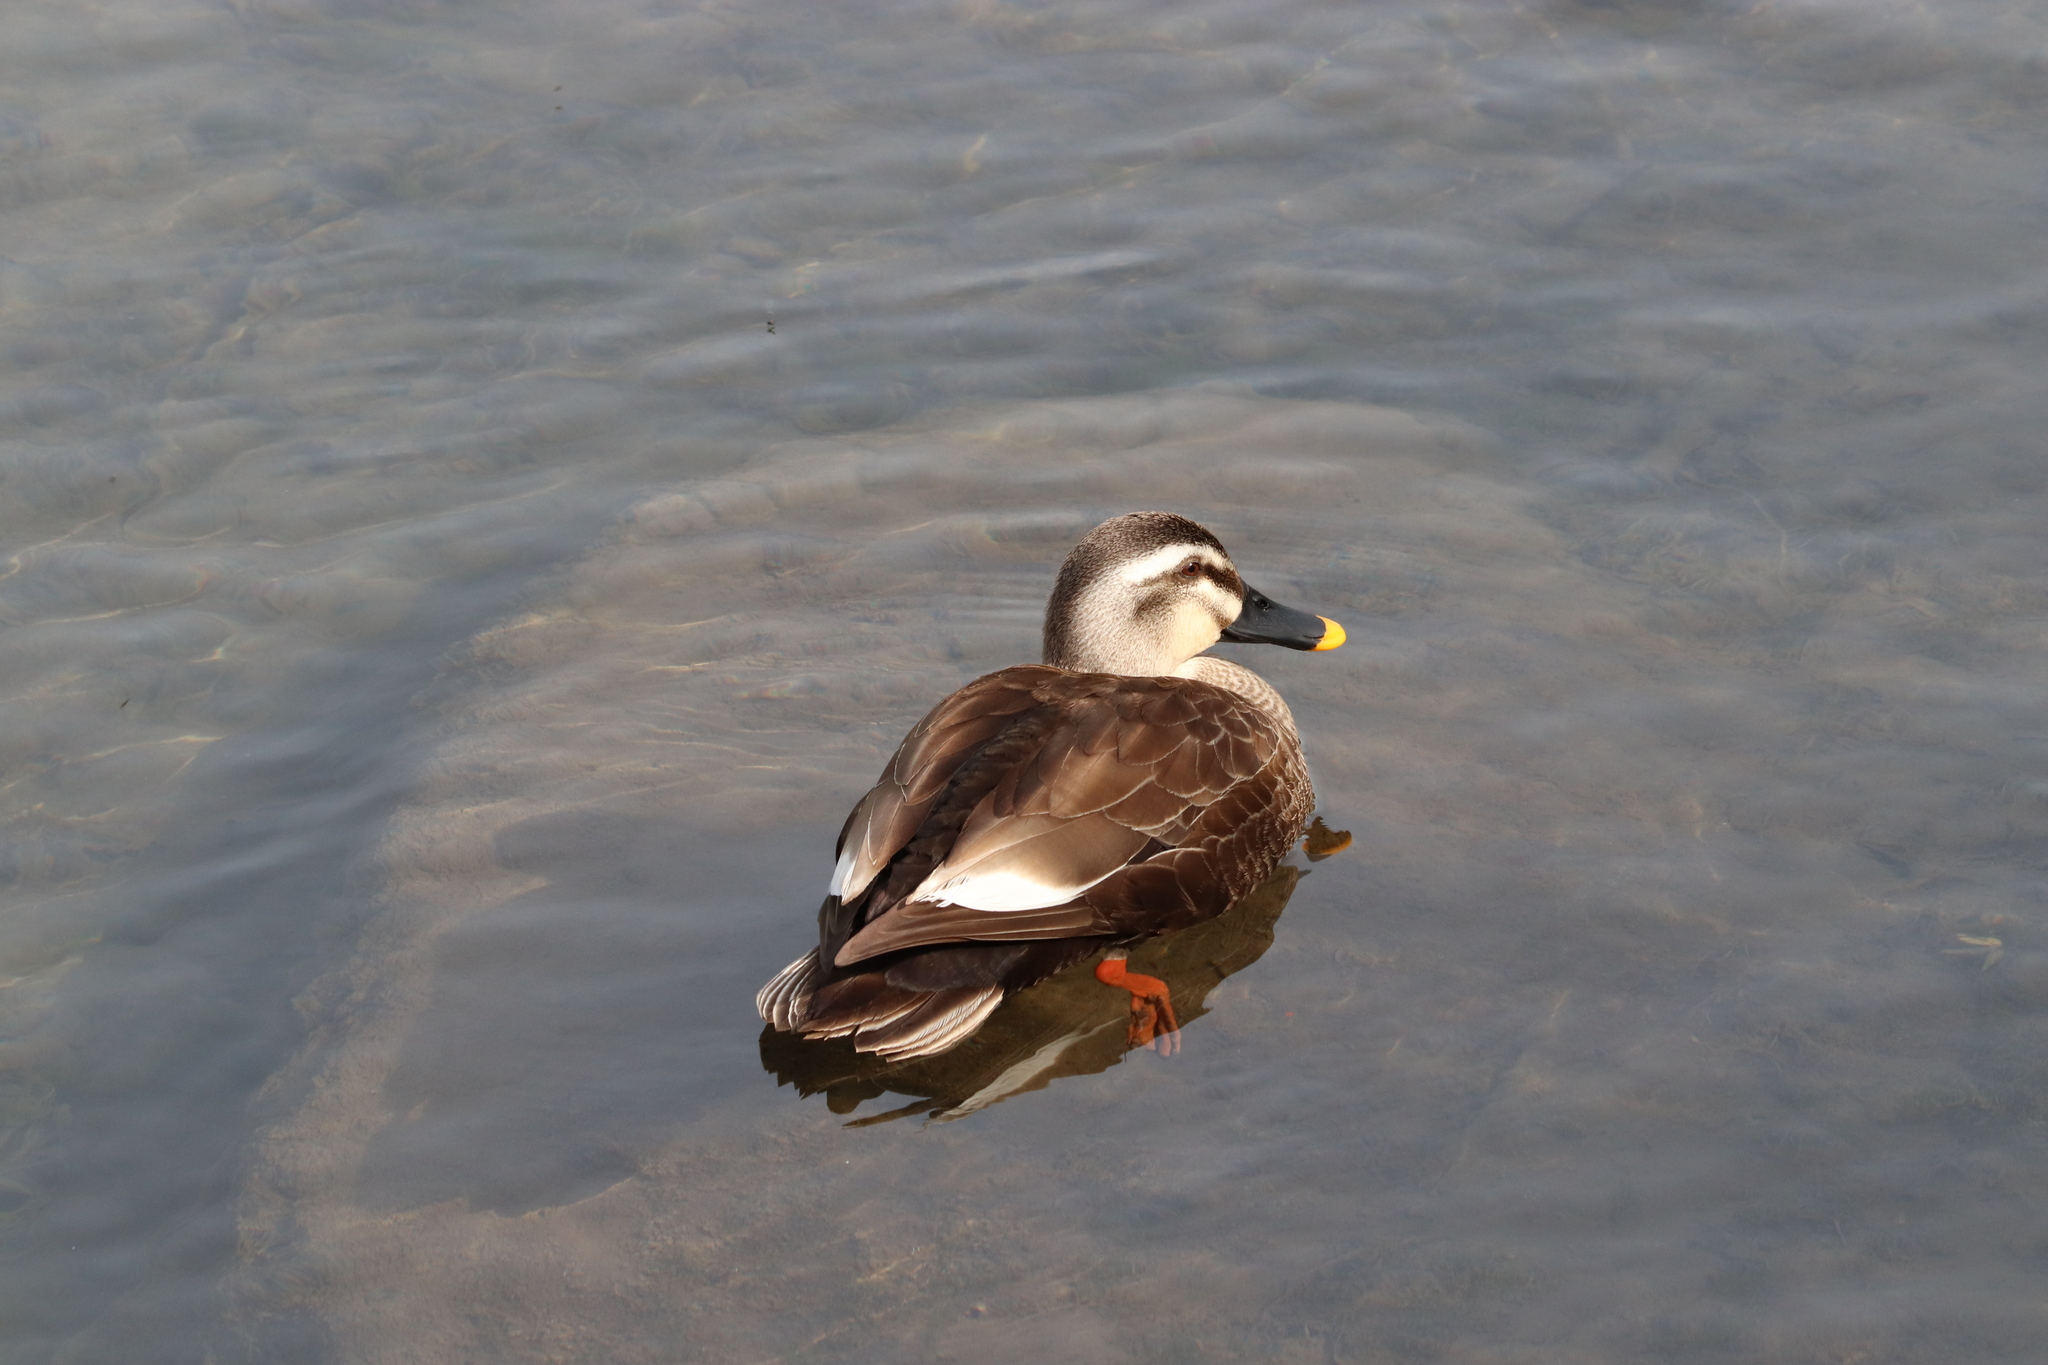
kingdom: Animalia
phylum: Chordata
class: Aves
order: Anseriformes
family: Anatidae
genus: Anas
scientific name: Anas zonorhyncha
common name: Eastern spot-billed duck
